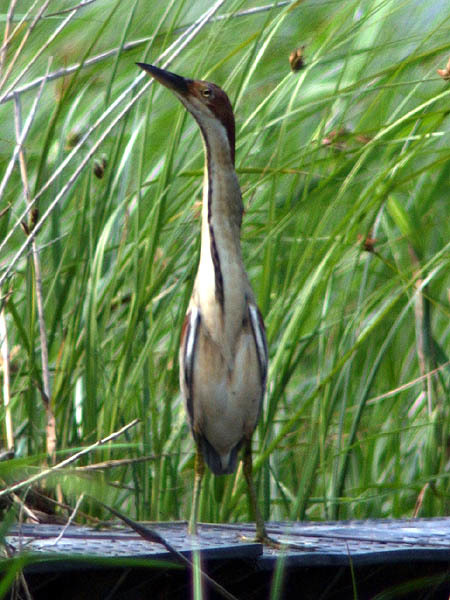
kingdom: Animalia
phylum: Chordata
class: Aves
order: Pelecaniformes
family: Ardeidae
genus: Ixobrychus
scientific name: Ixobrychus eurhythmus
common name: Von schrenck's bittern
